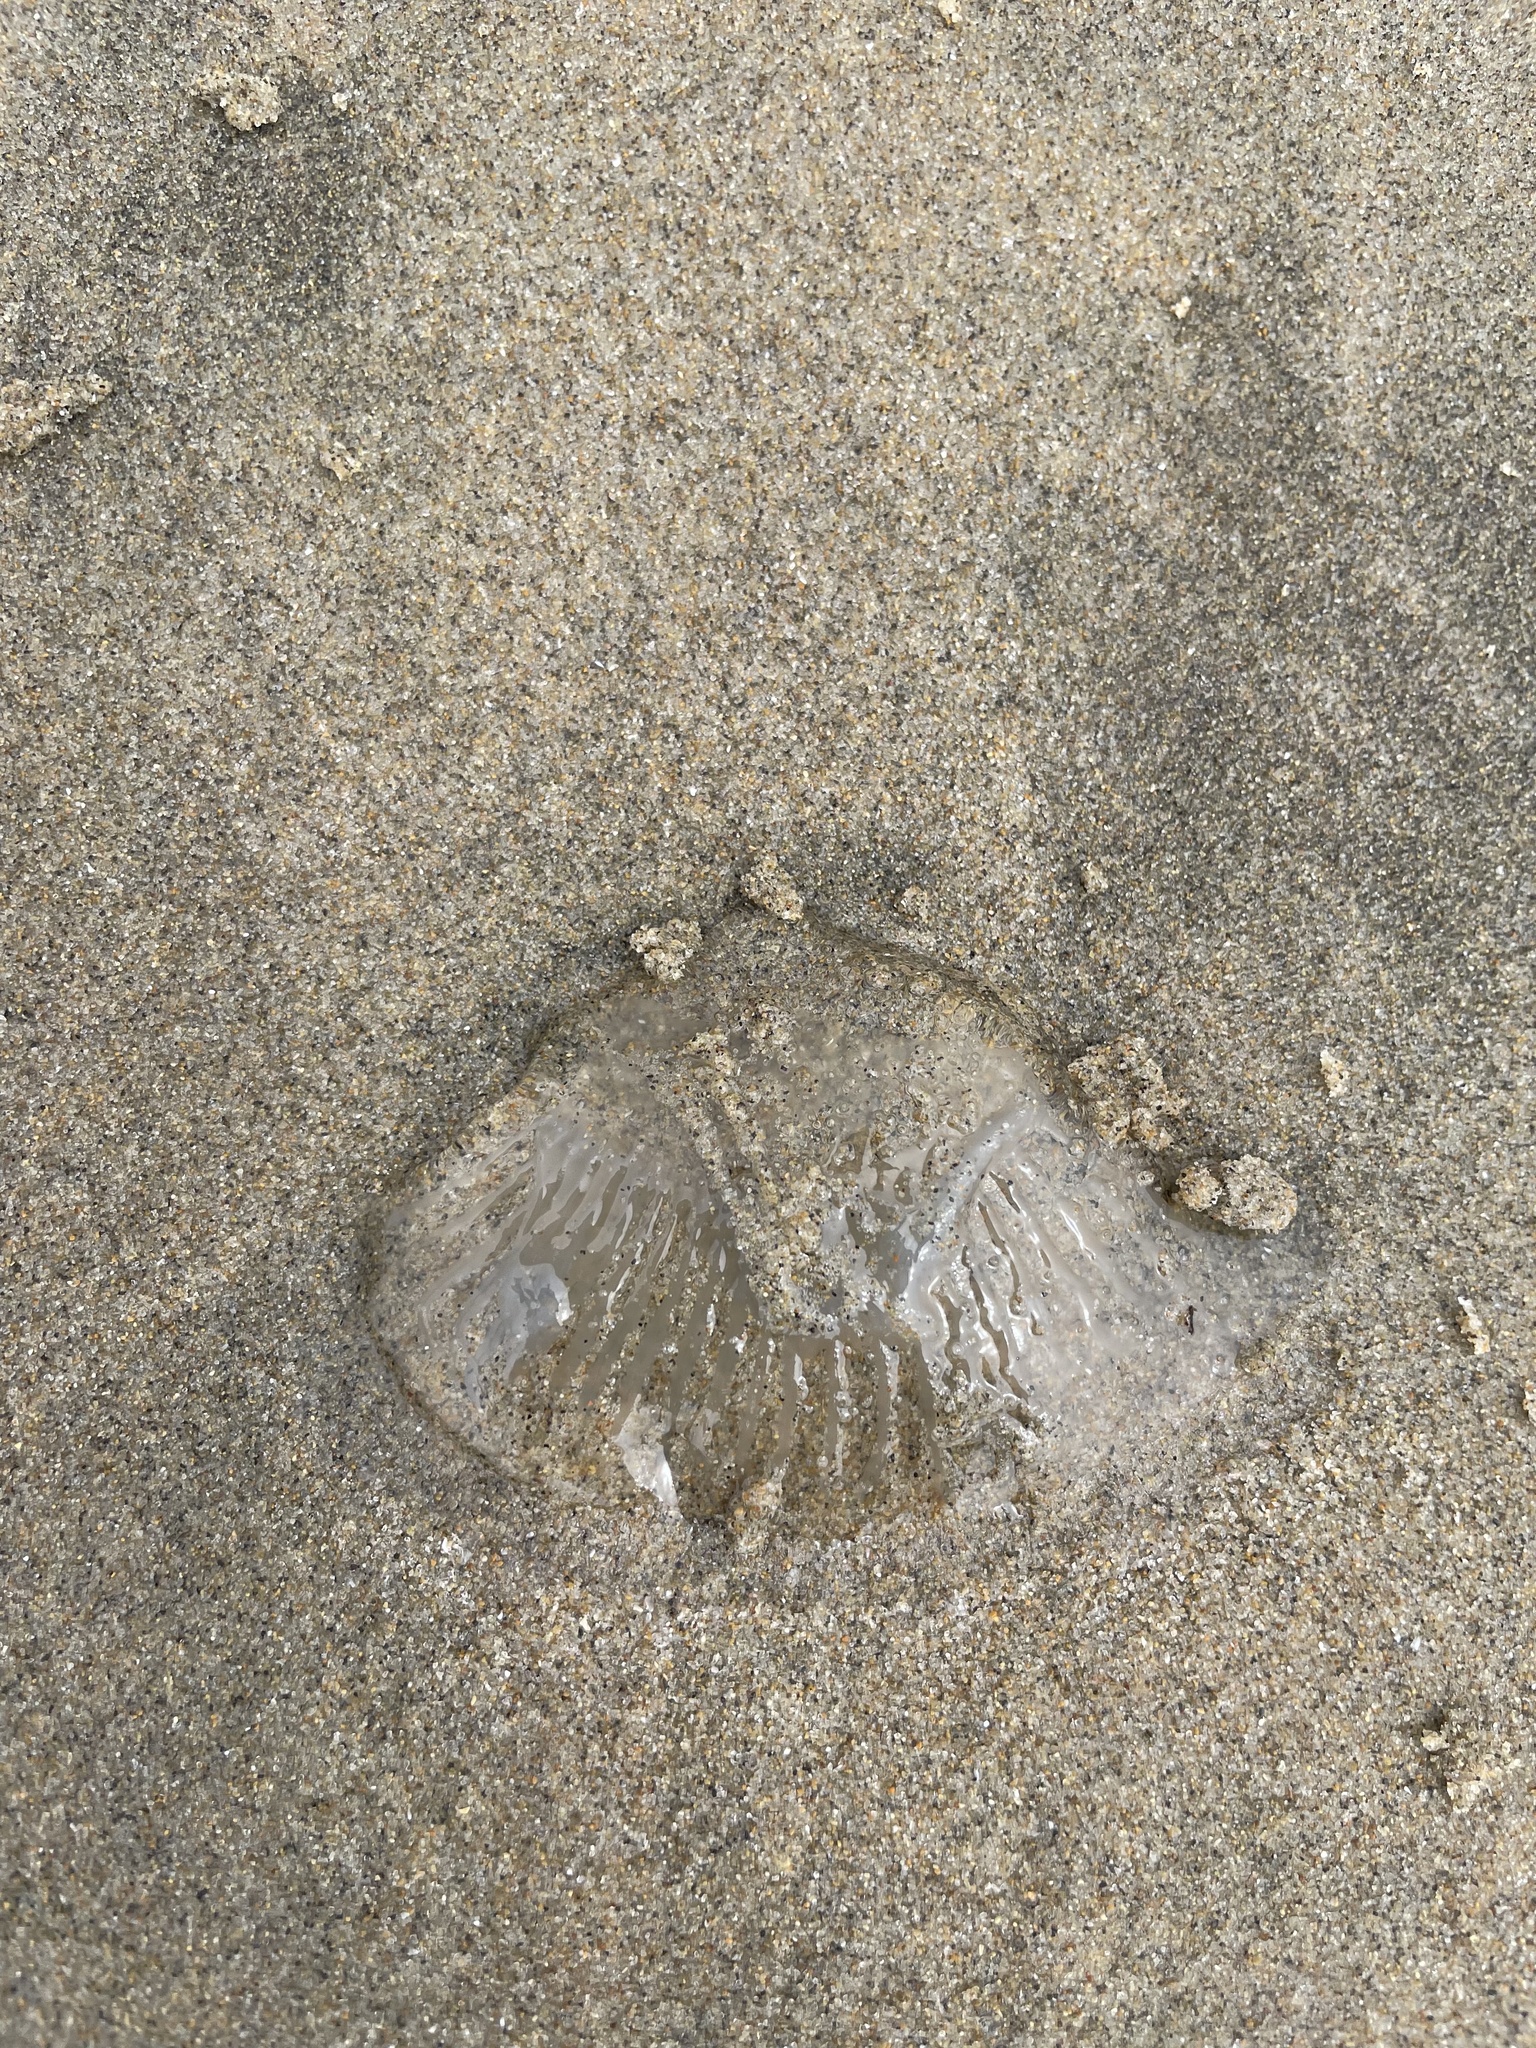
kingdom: Animalia
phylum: Cnidaria
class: Hydrozoa
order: Leptothecata
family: Aequoreidae
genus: Aequorea
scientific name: Aequorea victoria
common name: Water jellyfish
